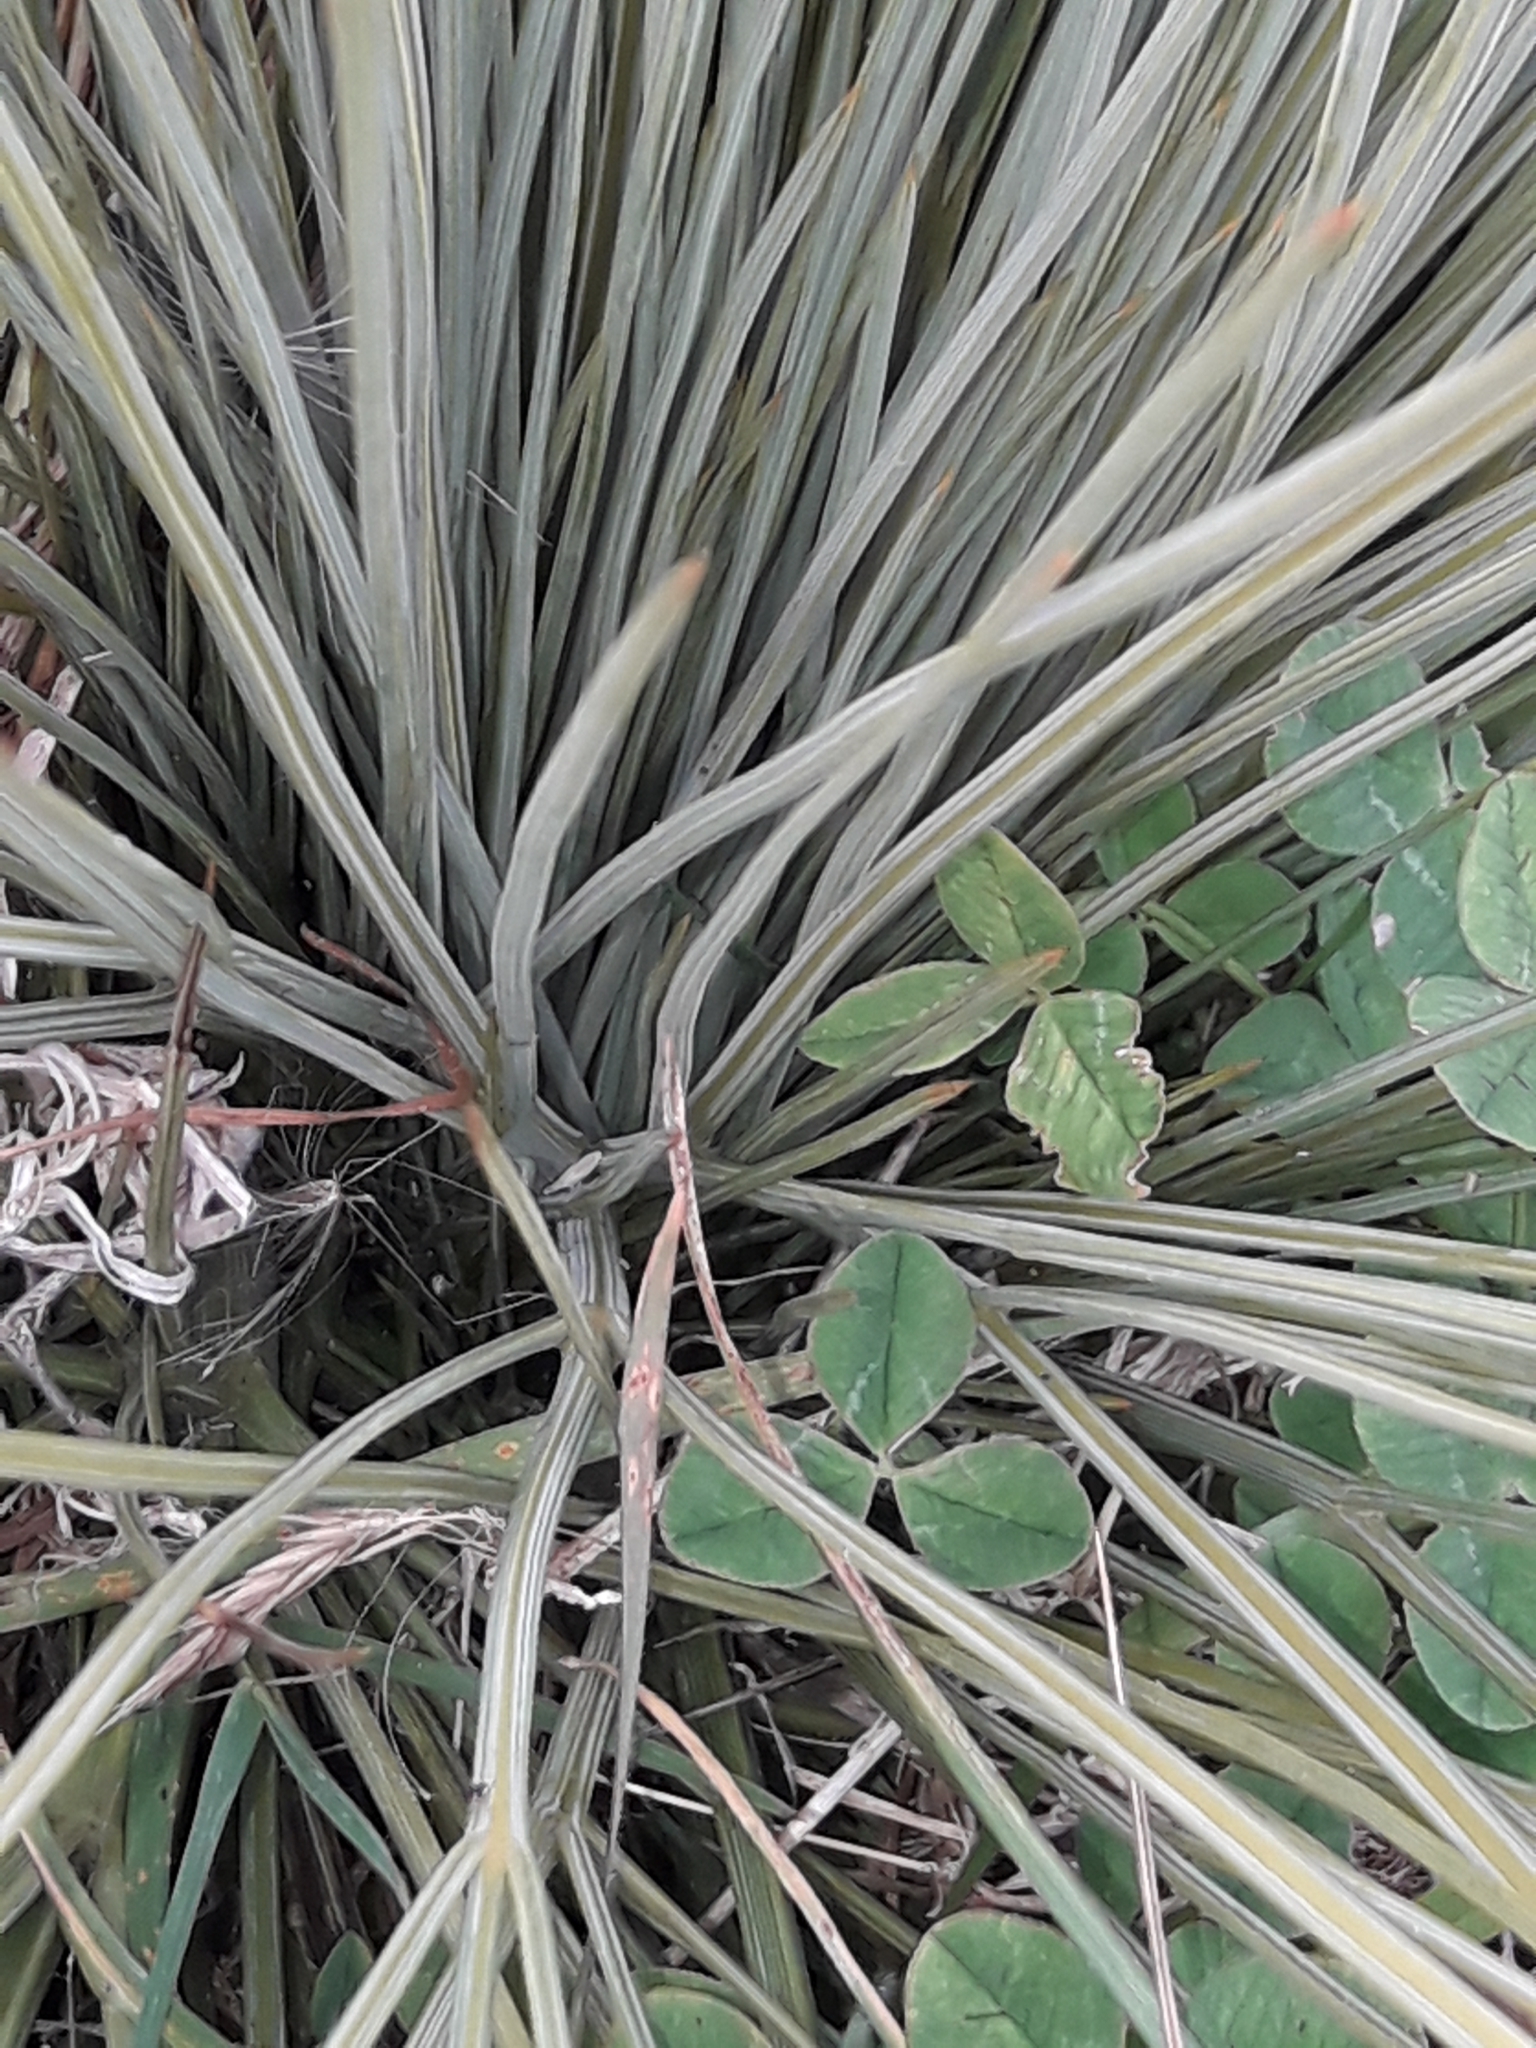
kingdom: Plantae
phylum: Tracheophyta
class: Magnoliopsida
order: Apiales
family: Apiaceae
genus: Aciphylla
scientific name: Aciphylla subflabellata
